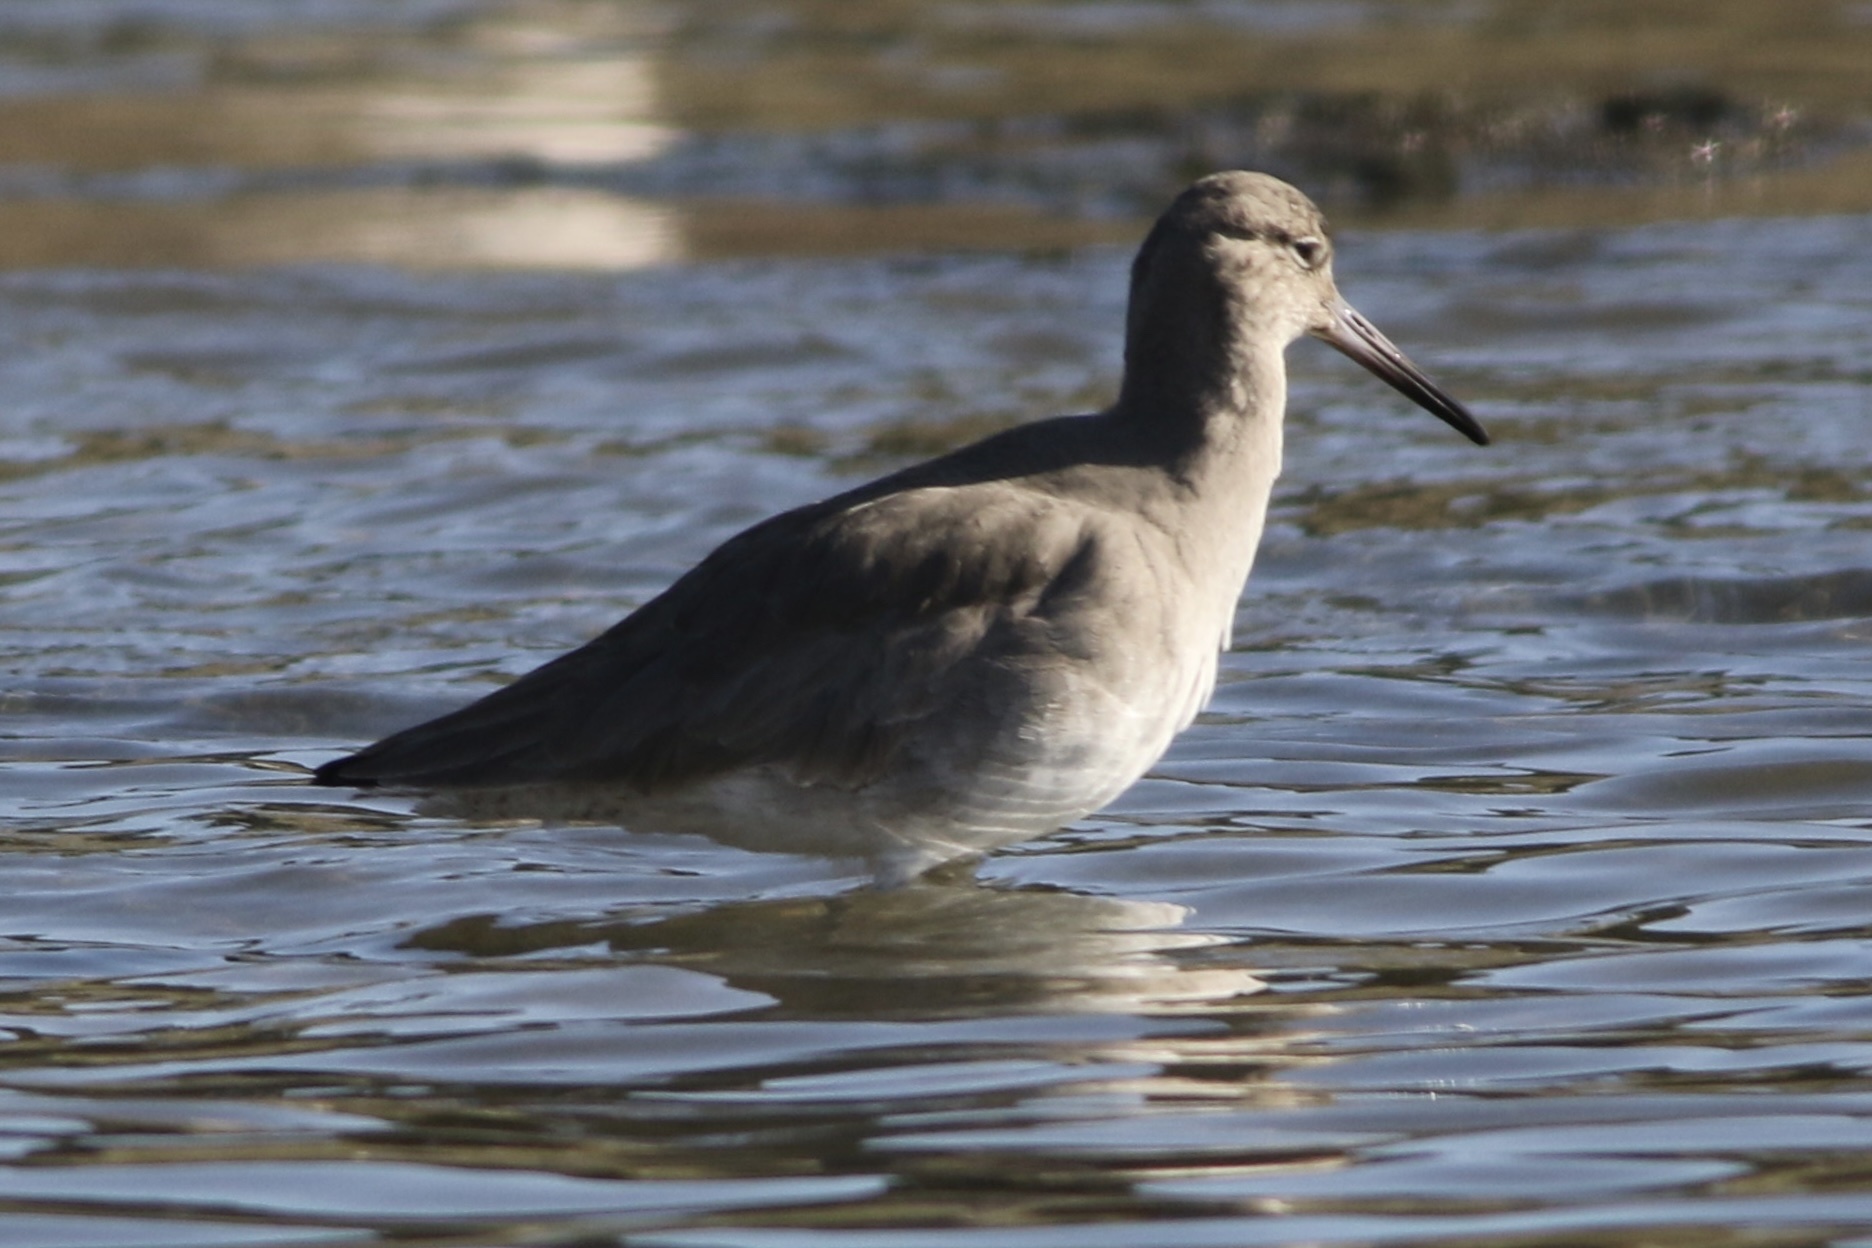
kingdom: Animalia
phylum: Chordata
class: Aves
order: Charadriiformes
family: Scolopacidae
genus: Tringa
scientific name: Tringa semipalmata
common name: Willet
